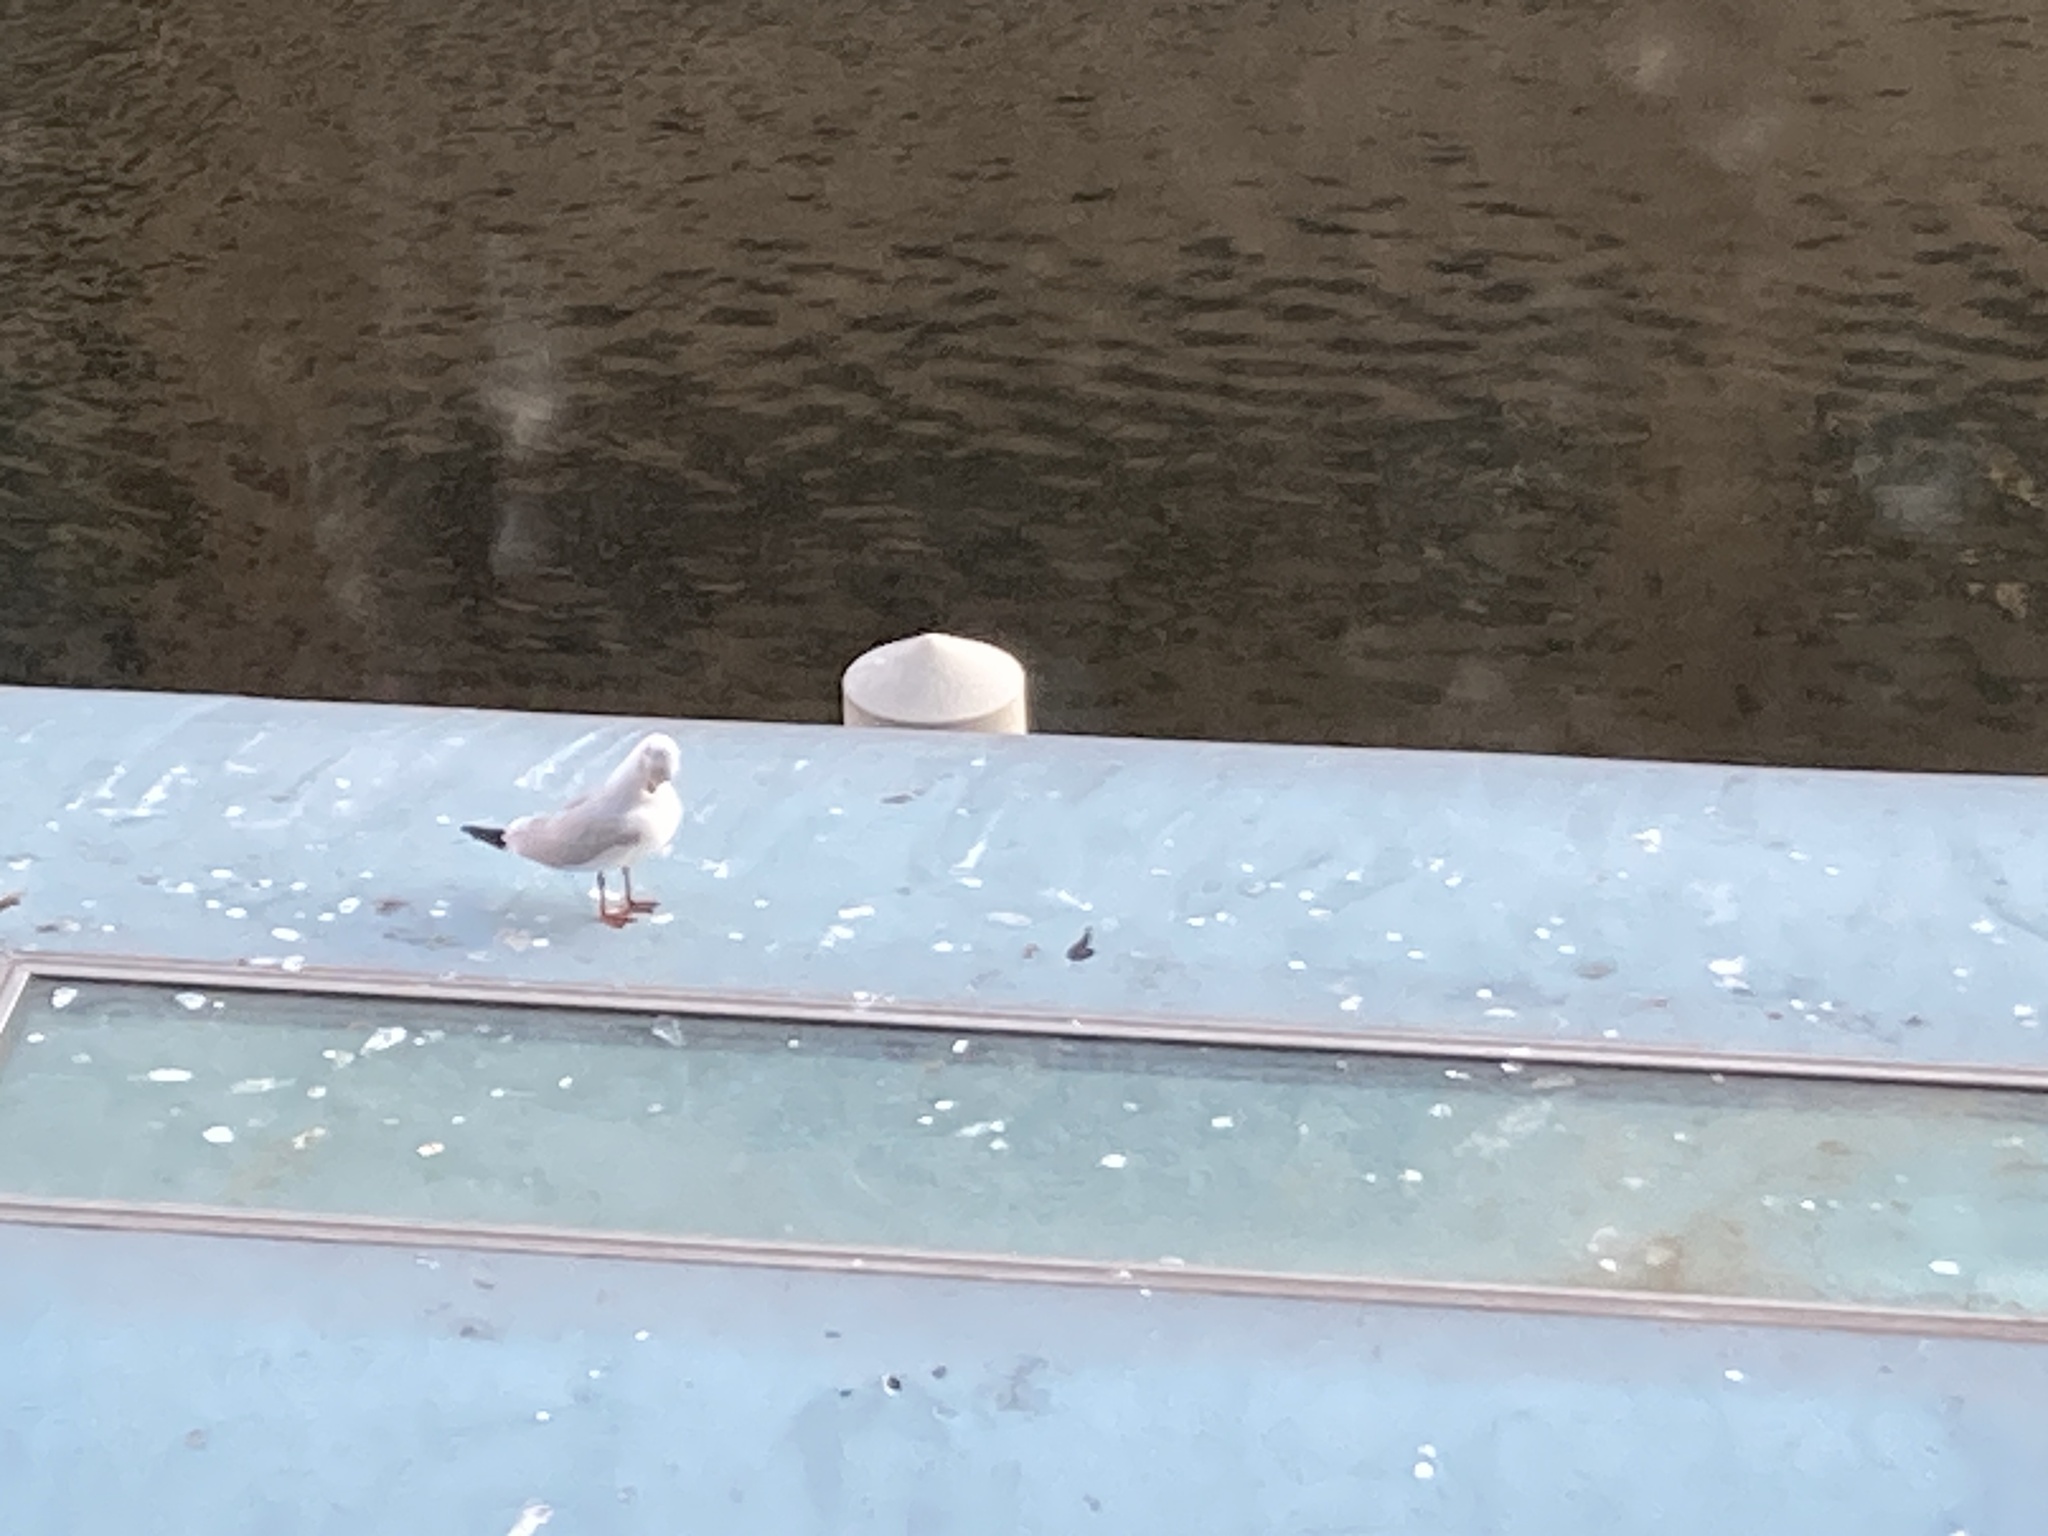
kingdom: Animalia
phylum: Chordata
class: Aves
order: Charadriiformes
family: Laridae
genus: Chroicocephalus
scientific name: Chroicocephalus ridibundus
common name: Black-headed gull
